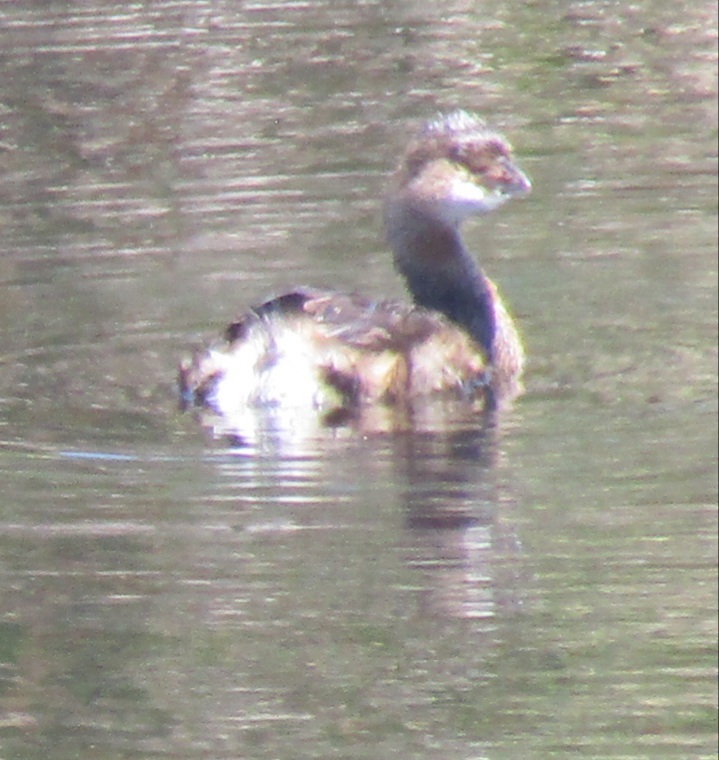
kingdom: Animalia
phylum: Chordata
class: Aves
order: Podicipediformes
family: Podicipedidae
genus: Podilymbus
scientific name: Podilymbus podiceps
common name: Pied-billed grebe
